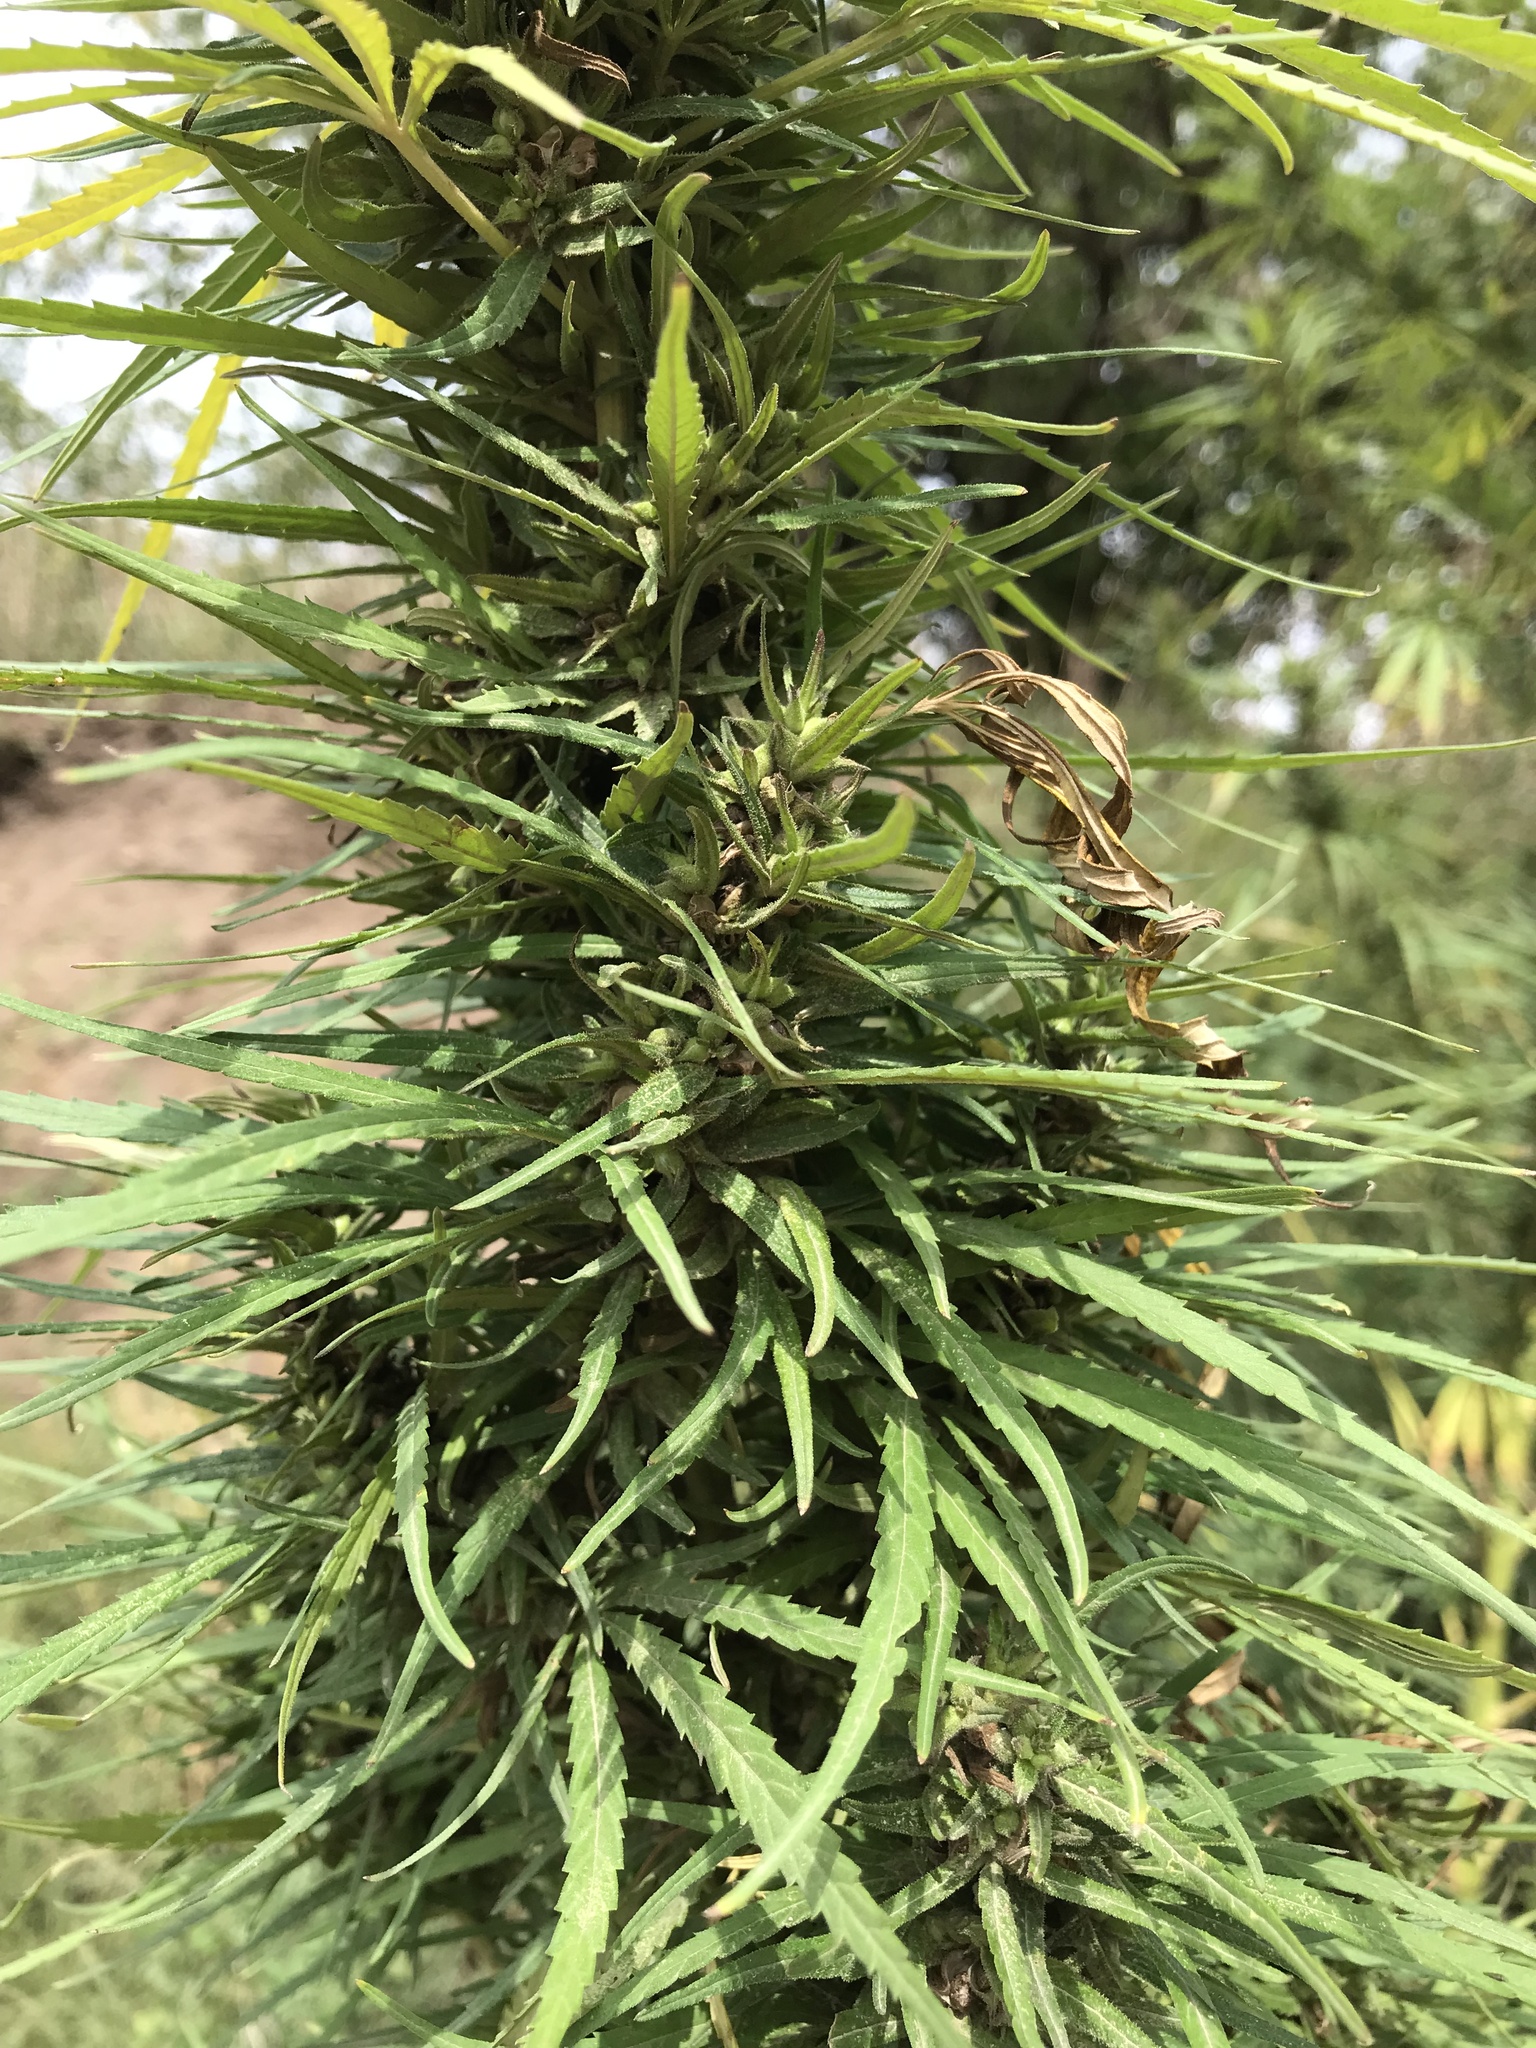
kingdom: Plantae
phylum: Tracheophyta
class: Magnoliopsida
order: Rosales
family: Cannabaceae
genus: Cannabis
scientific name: Cannabis sativa
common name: Hemp
